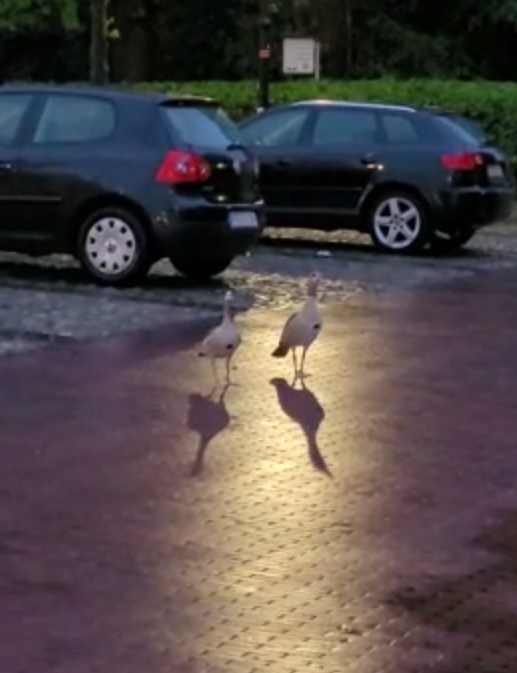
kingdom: Animalia
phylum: Chordata
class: Aves
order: Anseriformes
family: Anatidae
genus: Alopochen
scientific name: Alopochen aegyptiaca
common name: Egyptian goose
